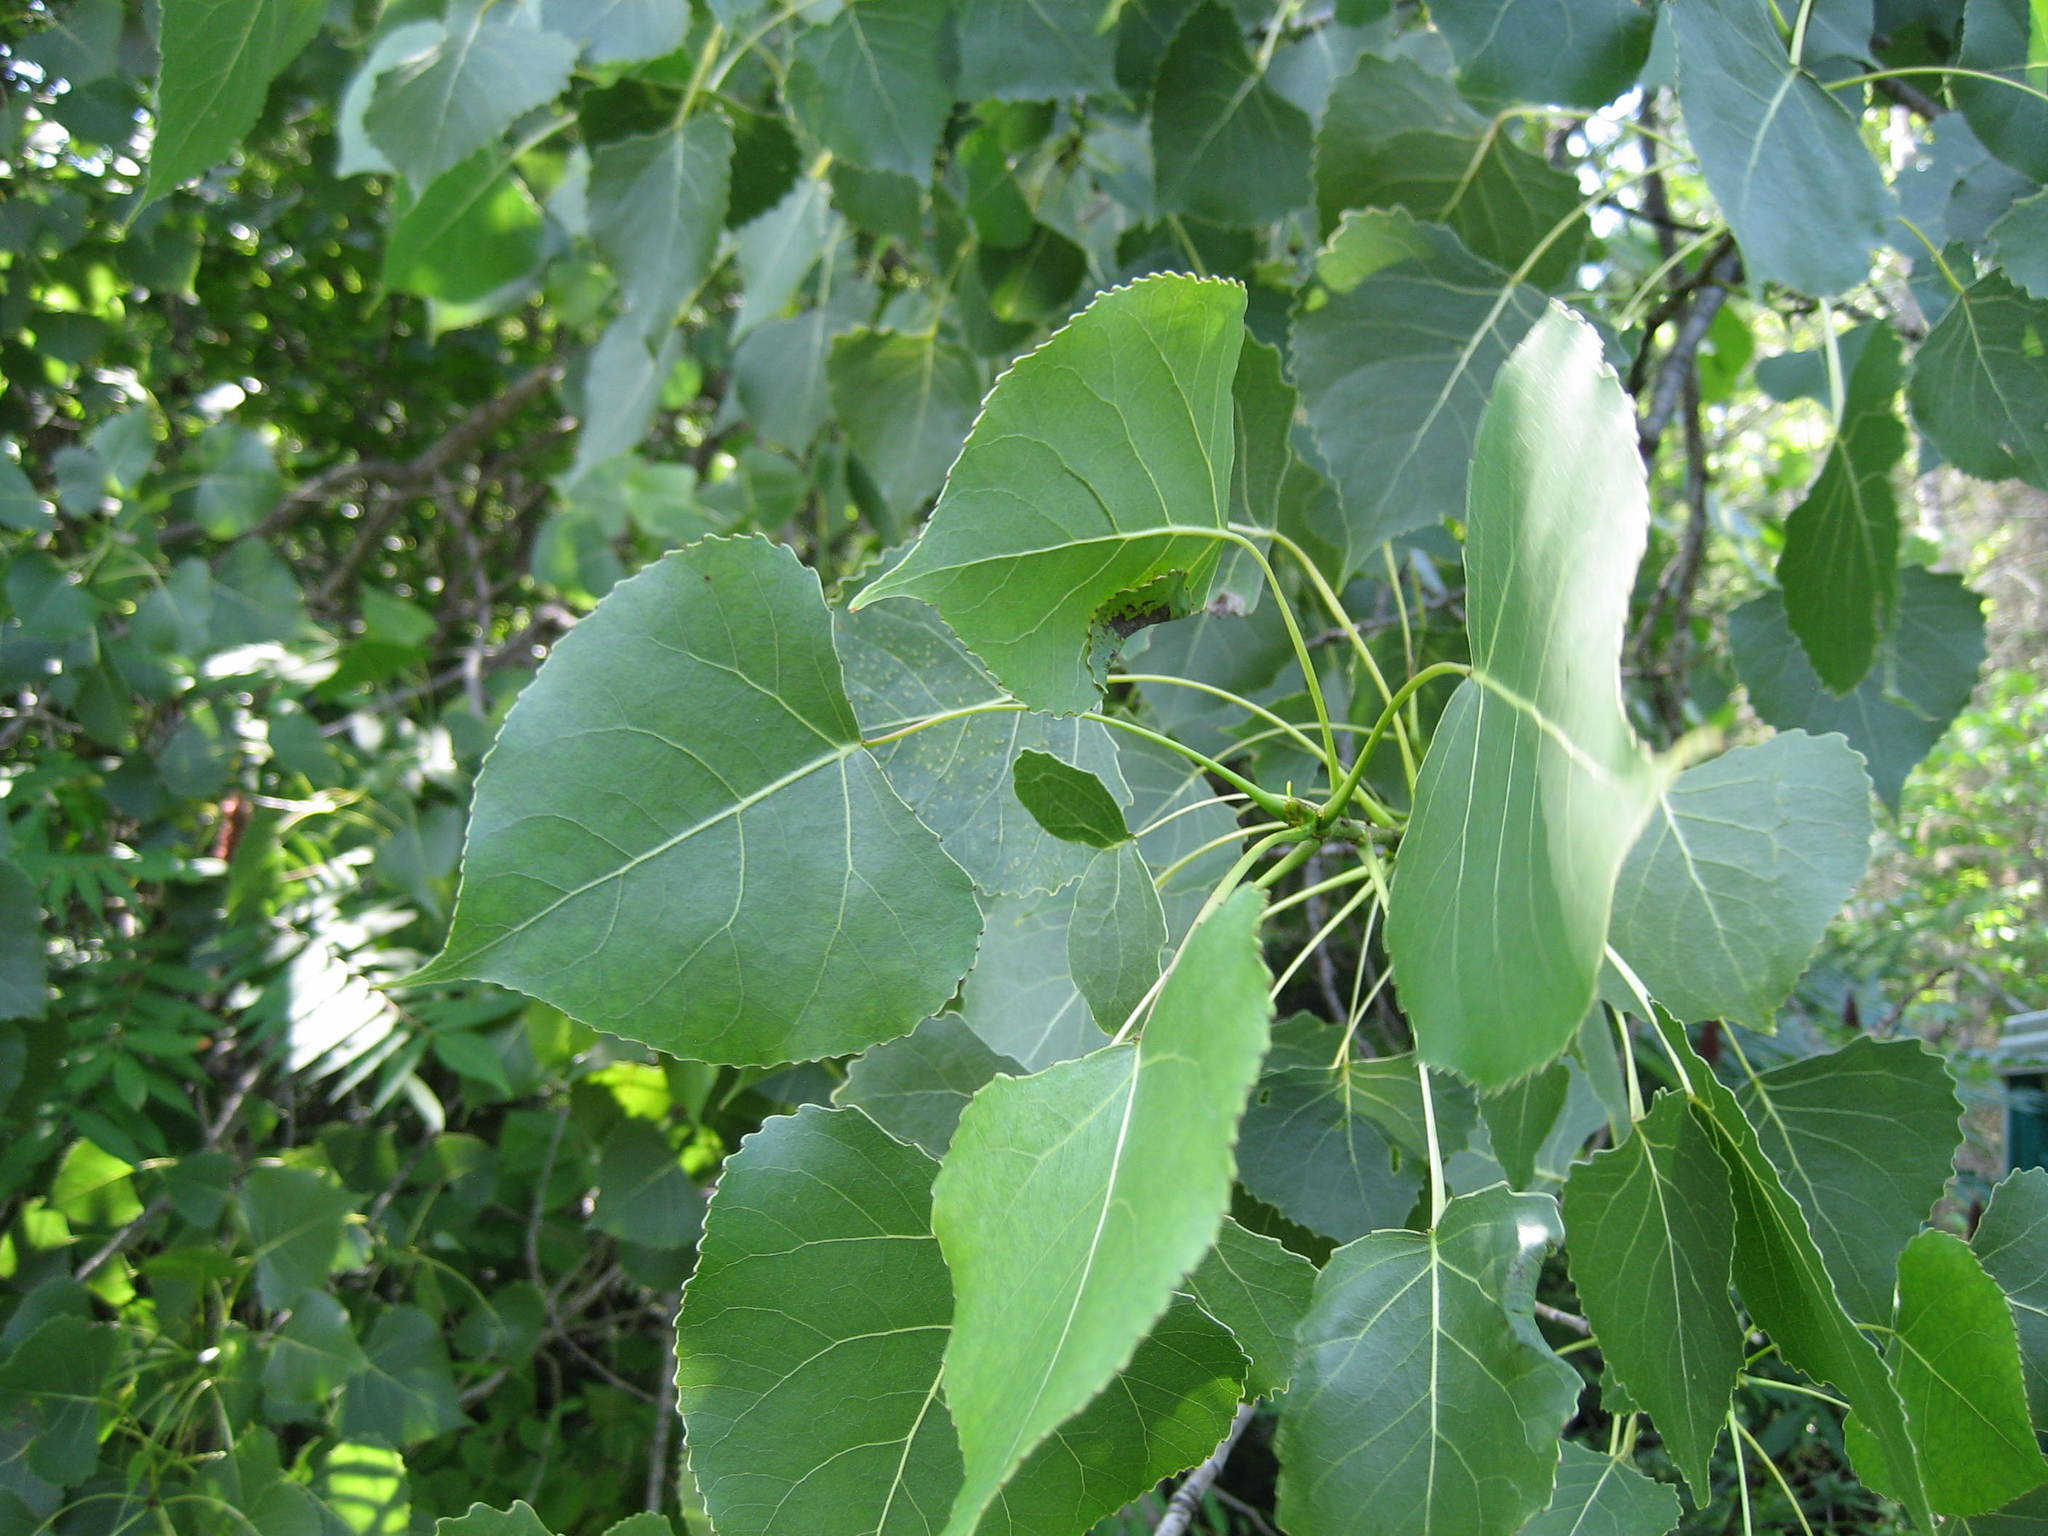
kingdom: Plantae
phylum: Tracheophyta
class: Magnoliopsida
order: Malpighiales
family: Salicaceae
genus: Populus
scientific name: Populus deltoides
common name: Eastern cottonwood
